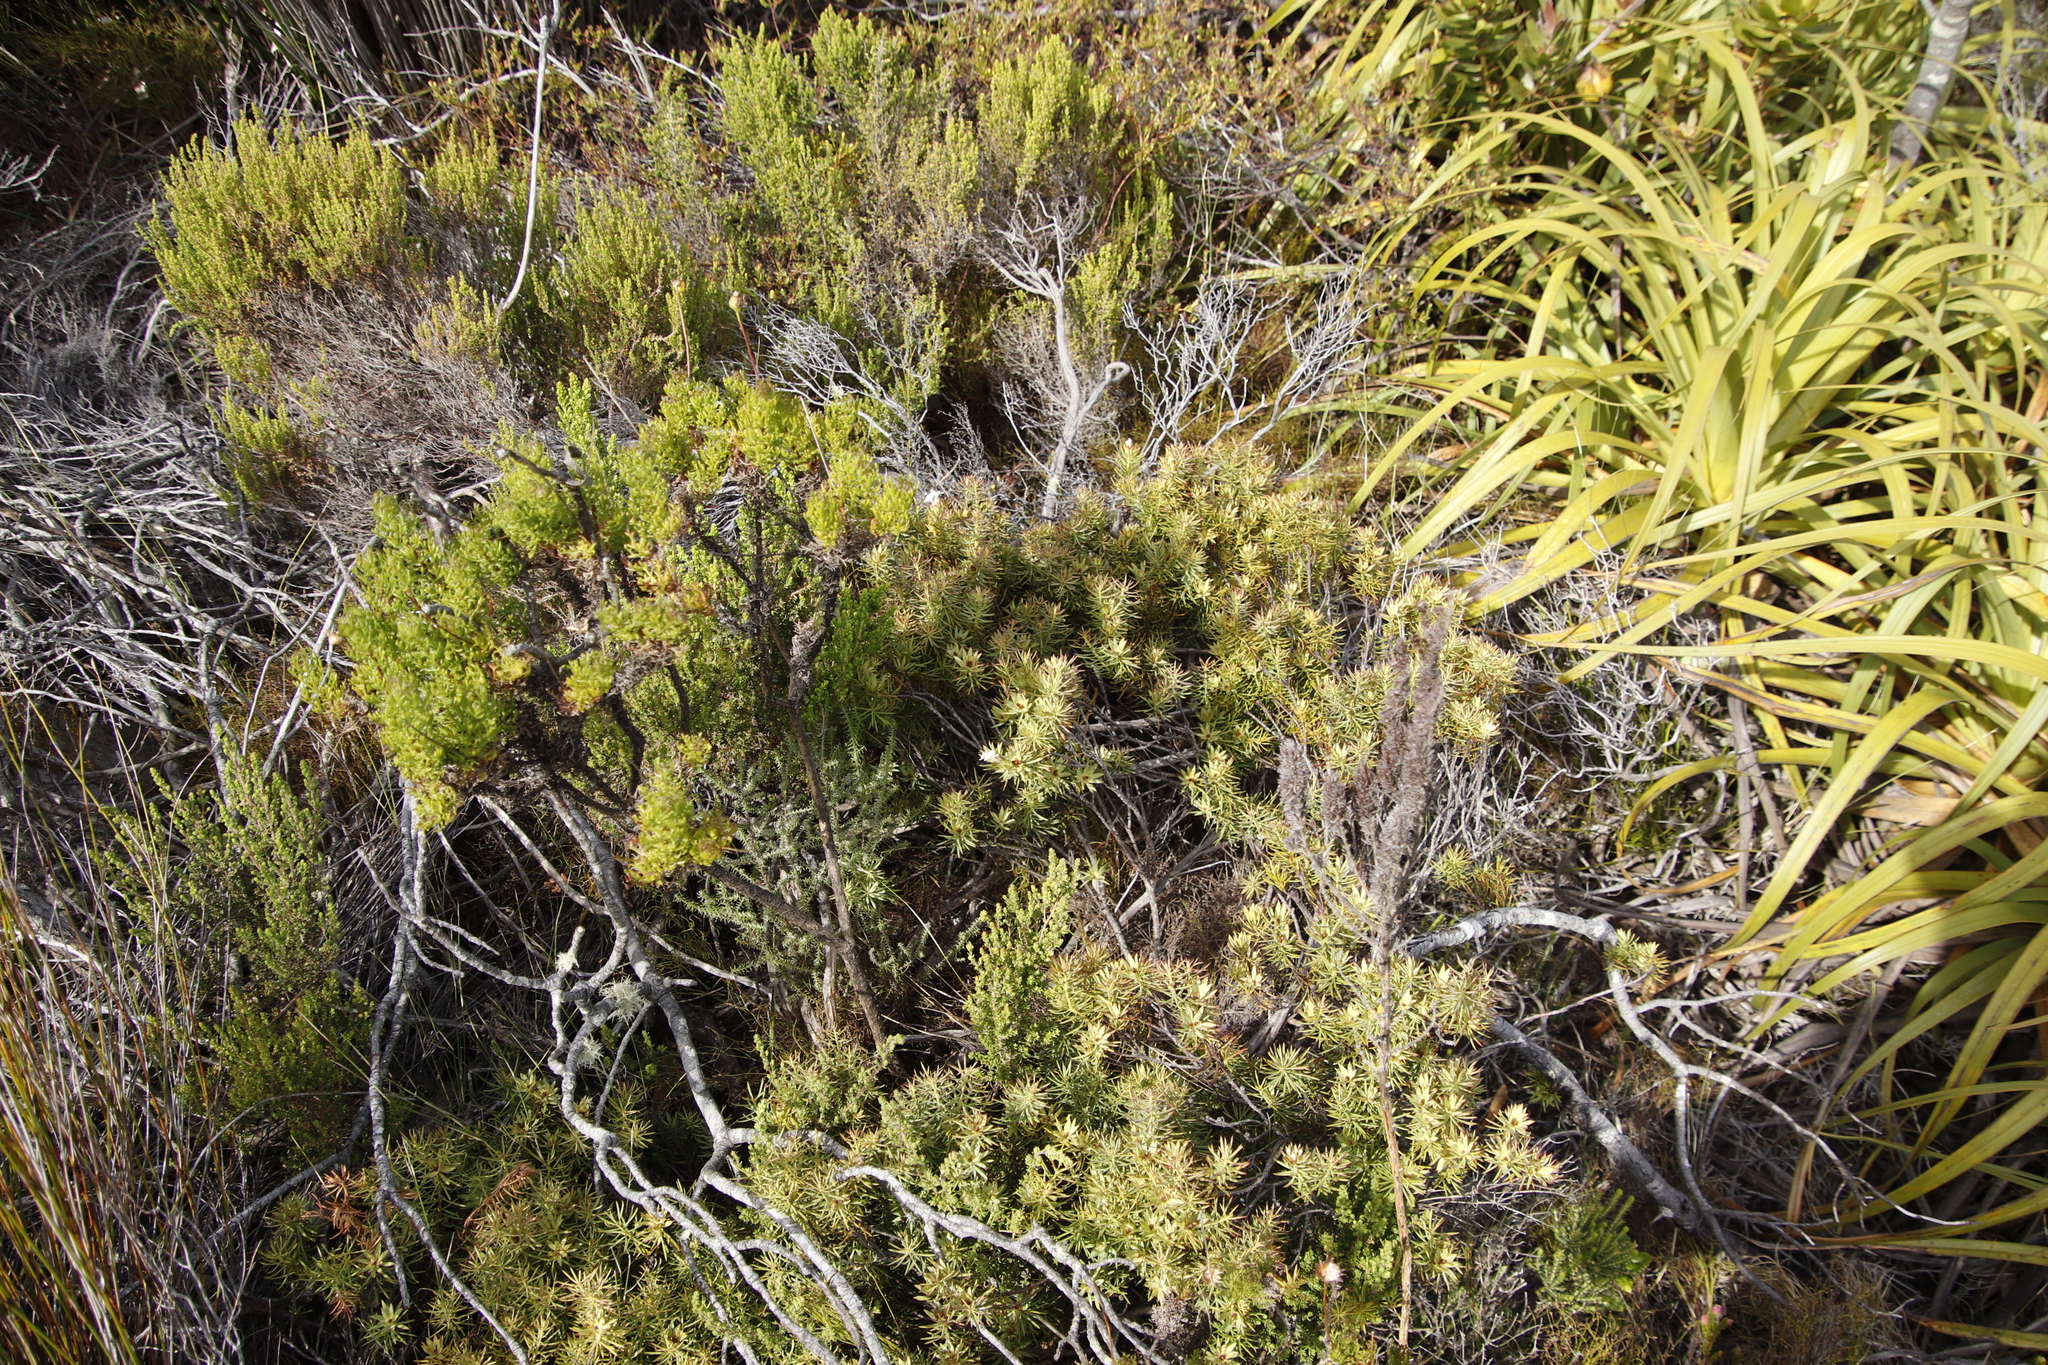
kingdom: Plantae
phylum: Tracheophyta
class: Magnoliopsida
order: Malvales
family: Thymelaeaceae
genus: Gnidia
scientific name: Gnidia pinifolia
